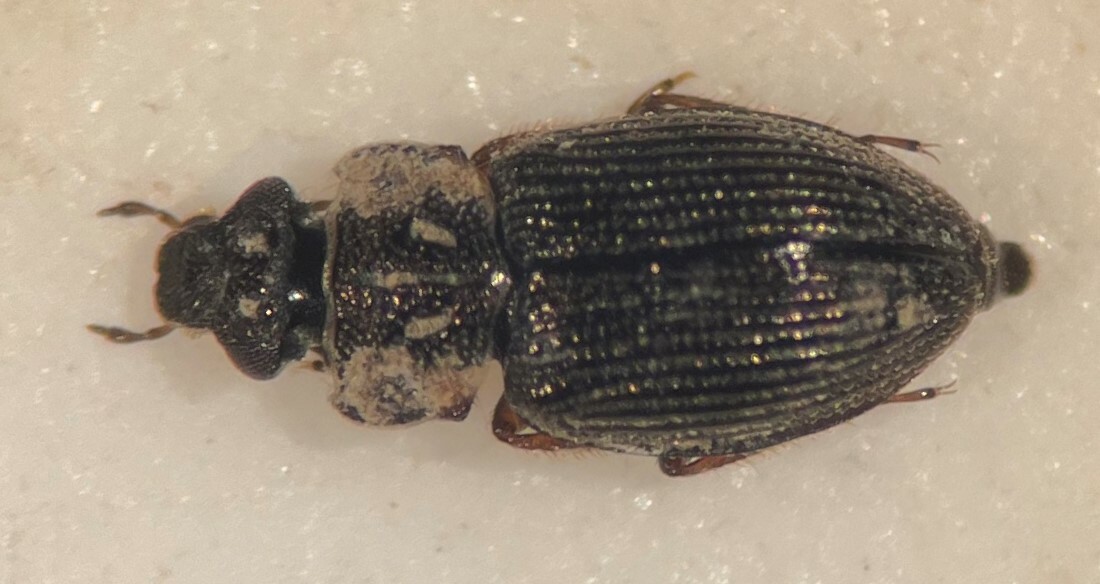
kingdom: Animalia
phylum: Arthropoda
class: Insecta
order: Coleoptera
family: Hydraenidae
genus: Ochthebius
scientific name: Ochthebius apache
